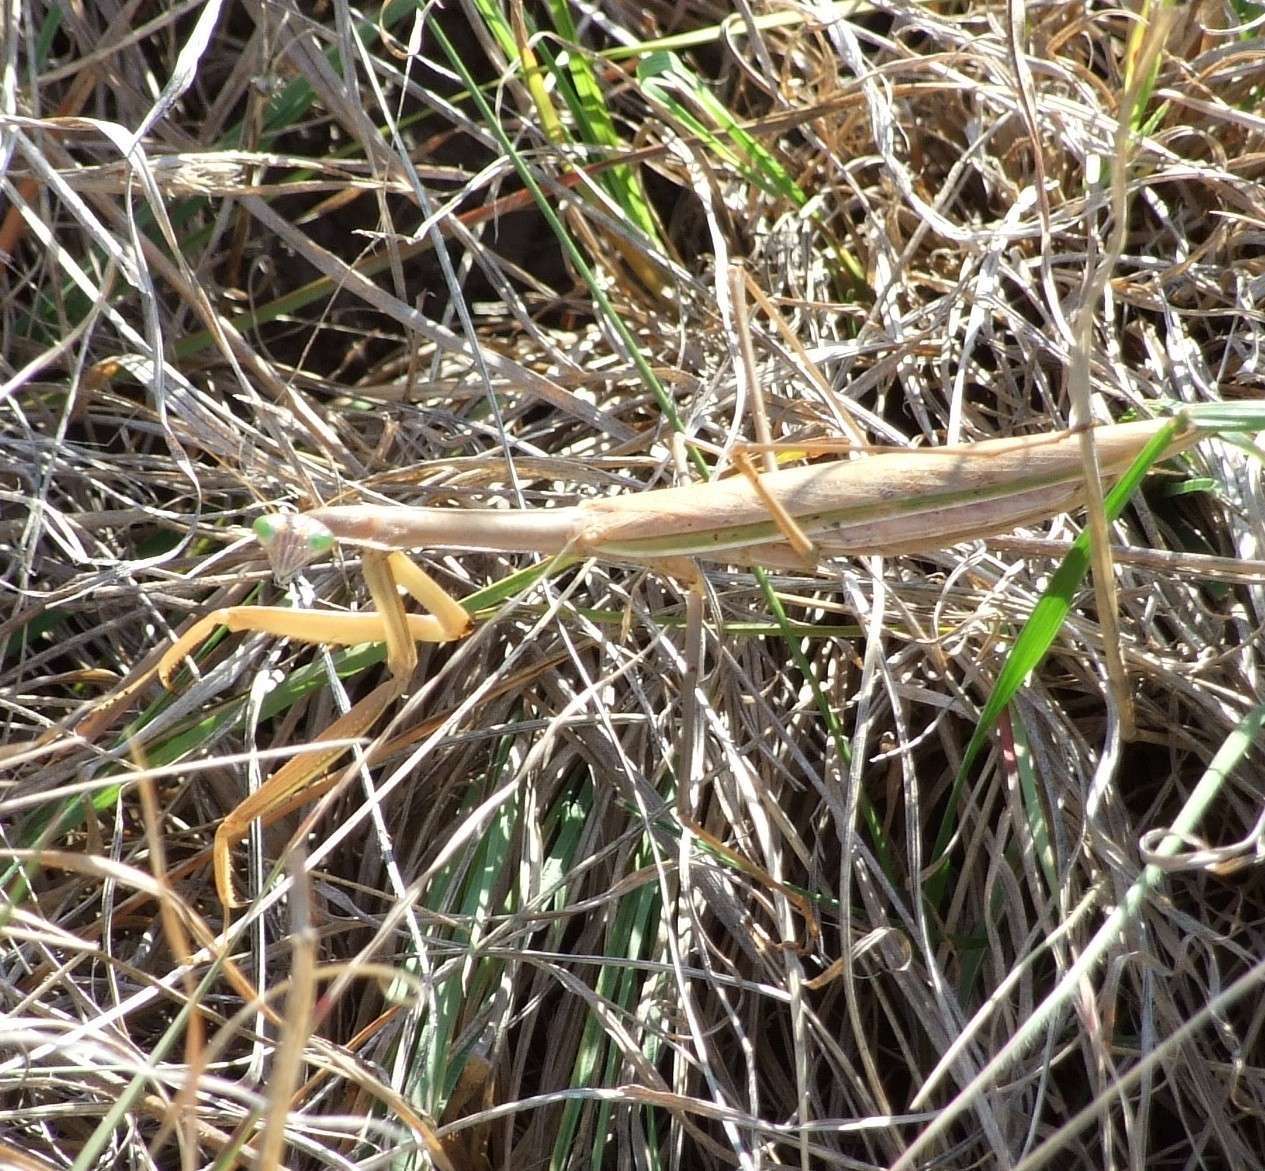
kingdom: Animalia
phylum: Arthropoda
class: Insecta
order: Mantodea
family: Mantidae
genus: Tenodera
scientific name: Tenodera australasiae
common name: Purple-winged mantis
